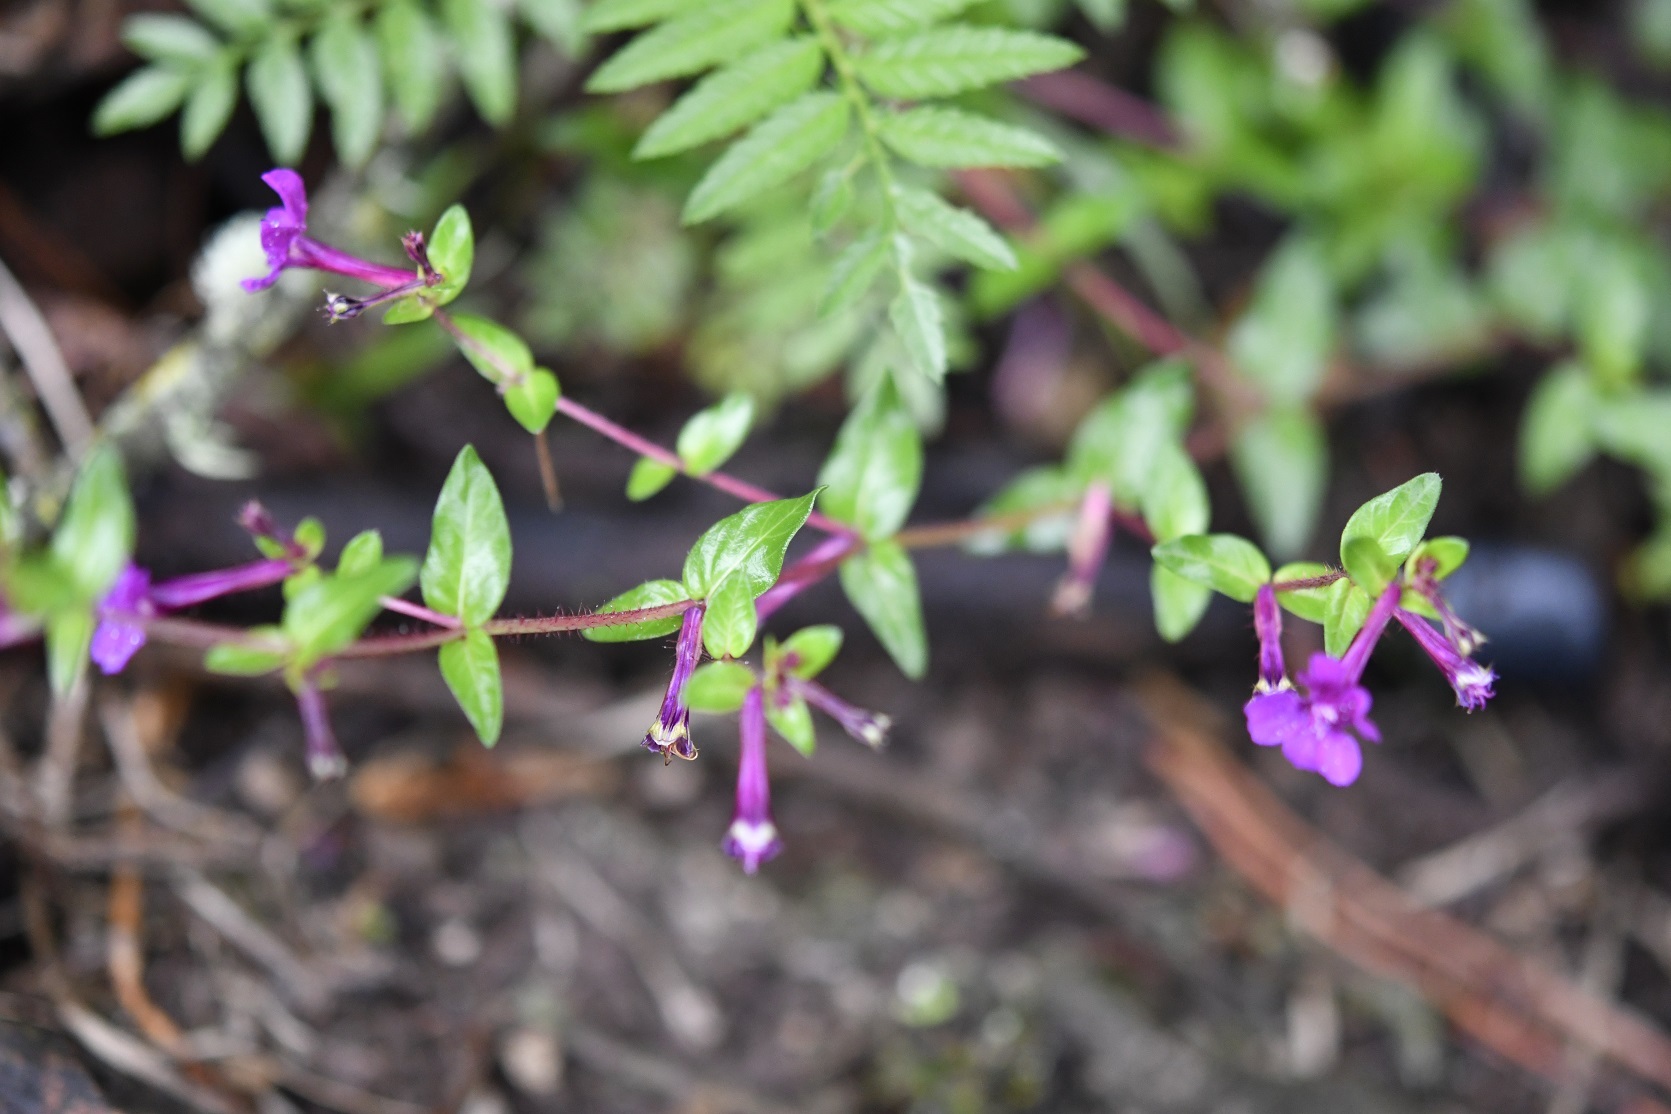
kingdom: Plantae
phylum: Tracheophyta
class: Magnoliopsida
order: Myrtales
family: Lythraceae
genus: Cuphea
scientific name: Cuphea aequipetala
